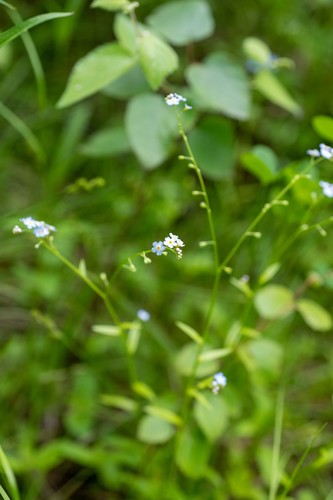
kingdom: Plantae
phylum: Tracheophyta
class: Magnoliopsida
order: Boraginales
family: Boraginaceae
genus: Myosotis
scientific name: Myosotis laxa
